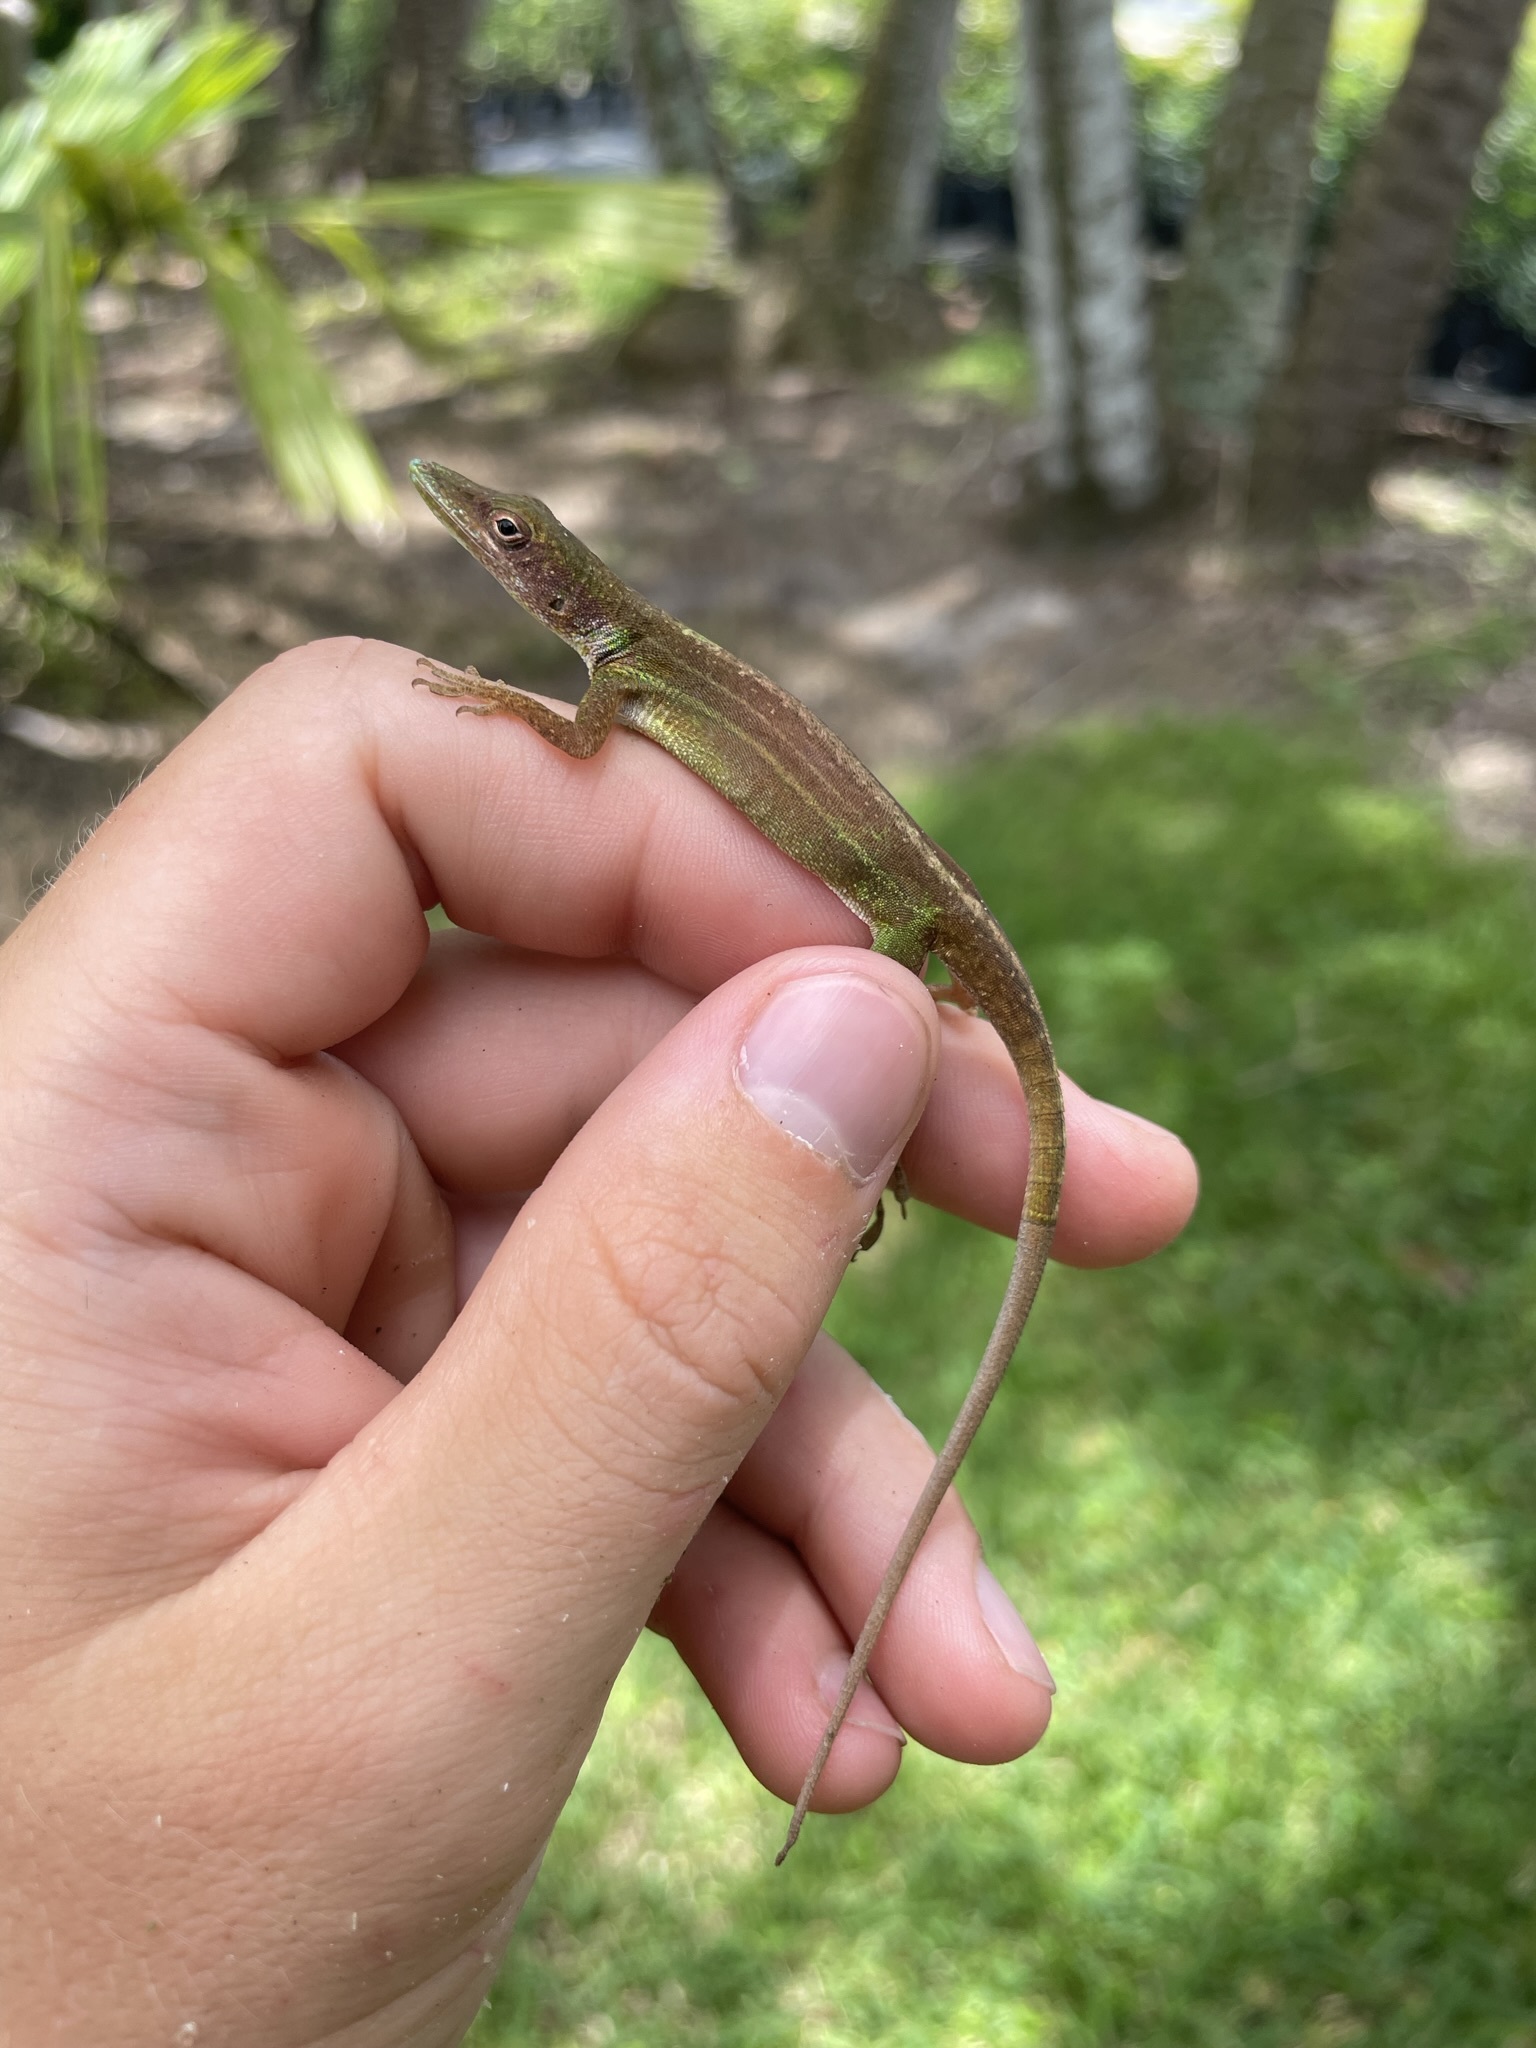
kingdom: Animalia
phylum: Chordata
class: Squamata
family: Dactyloidae
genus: Anolis
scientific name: Anolis chlorocyanus
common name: Hispaniolan green anole
